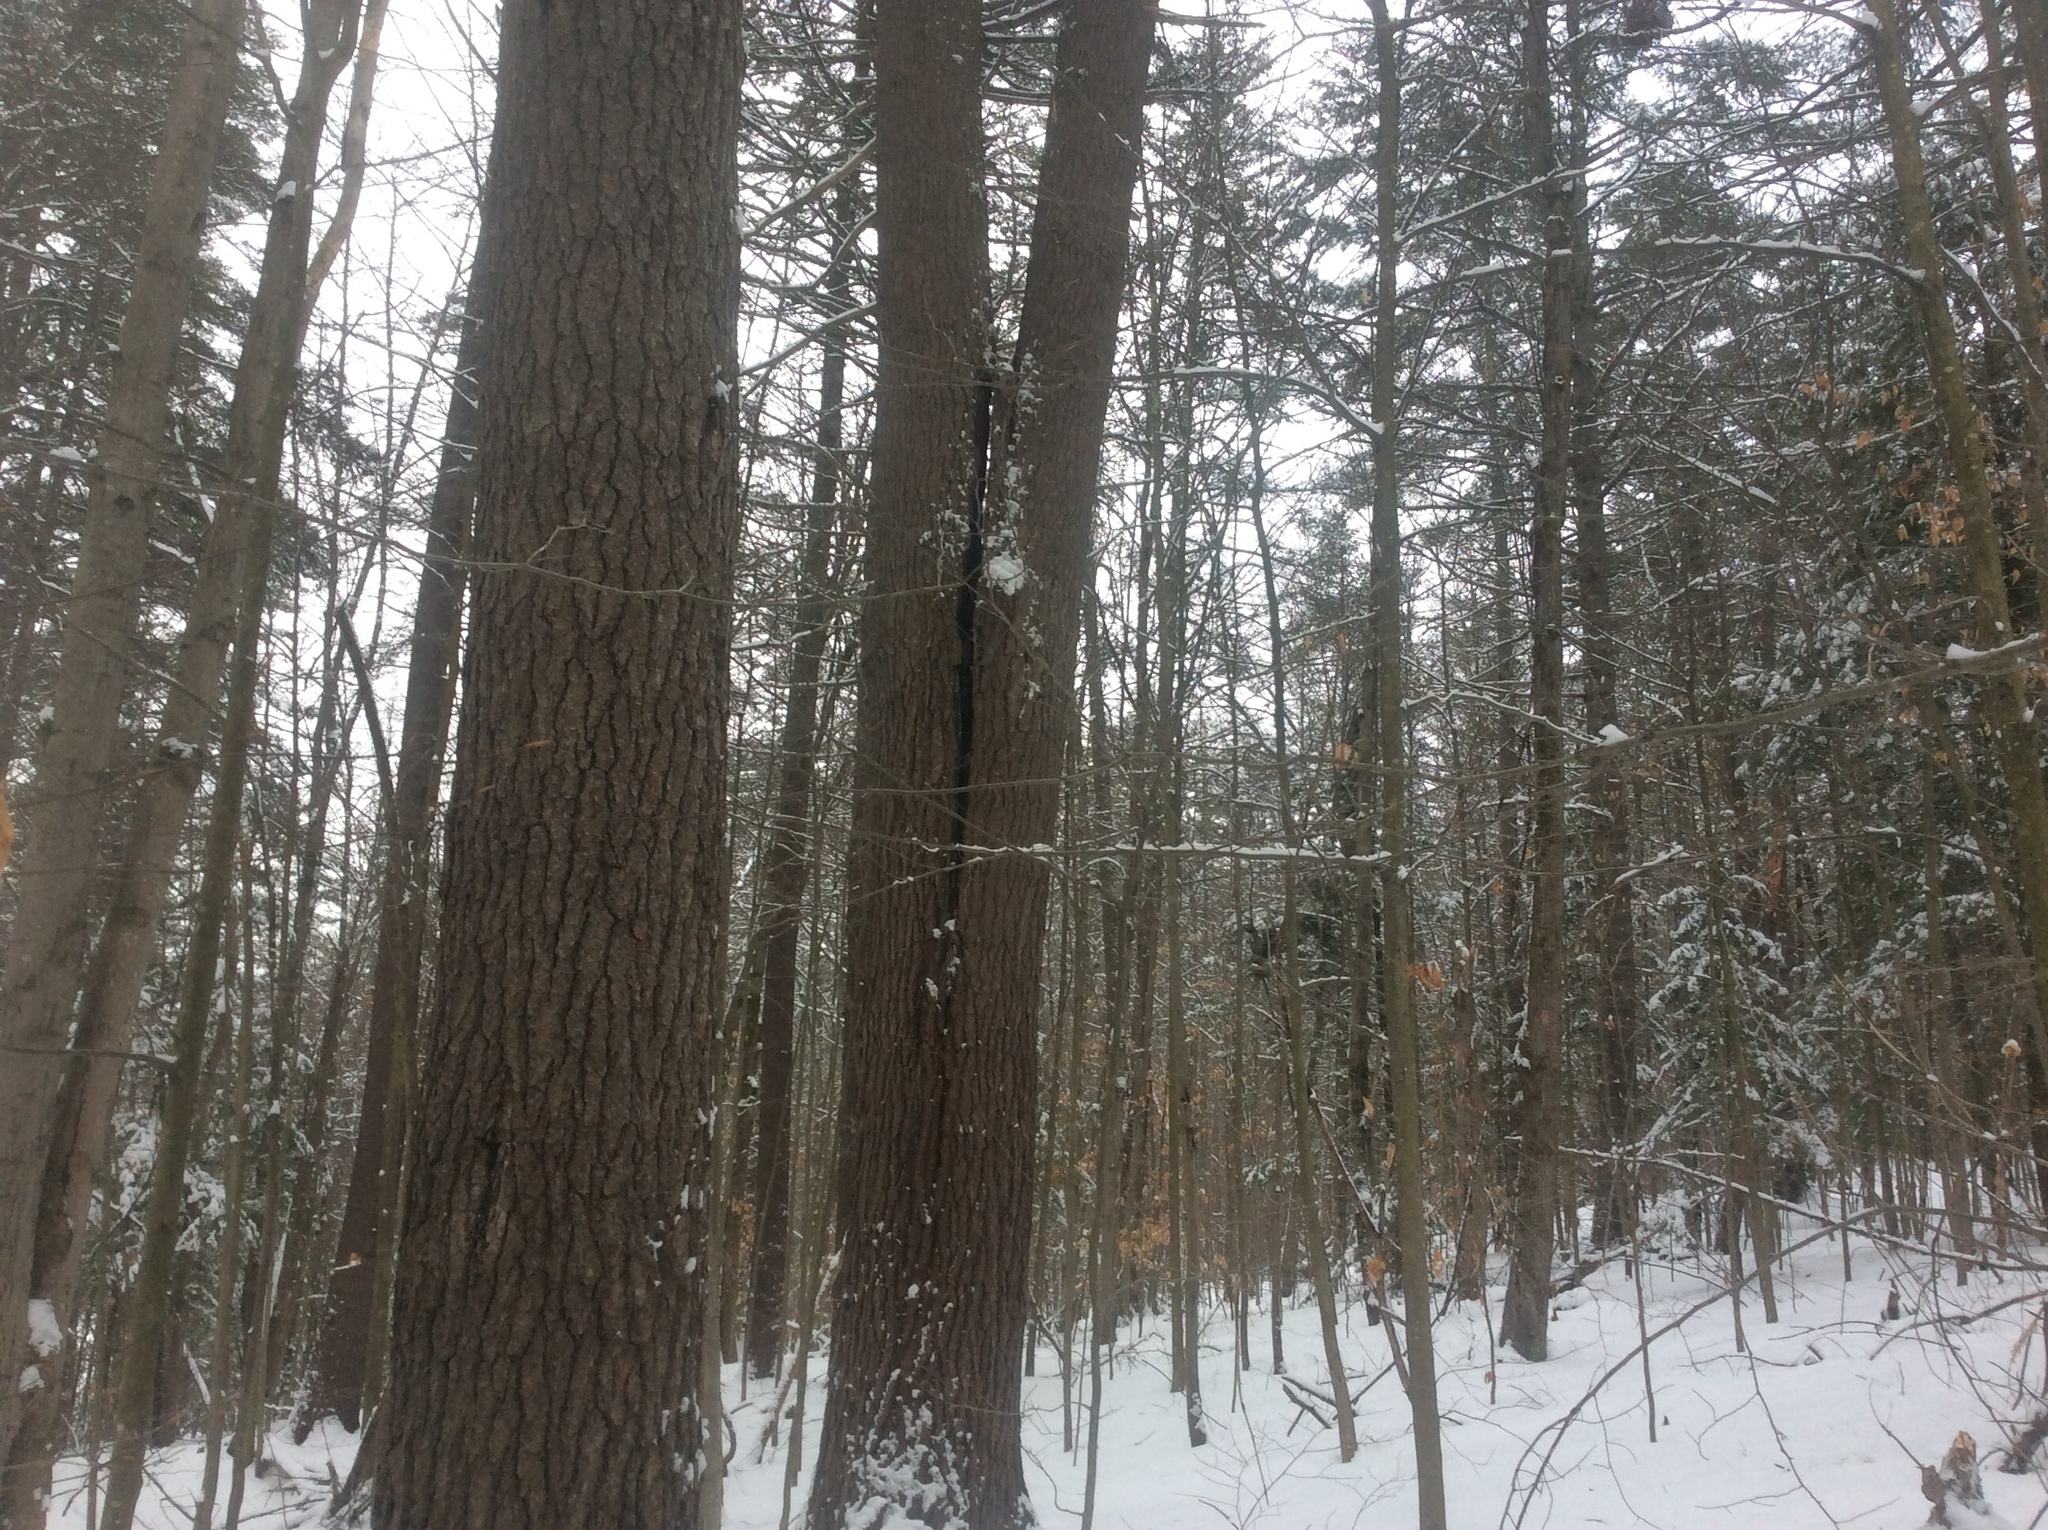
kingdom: Plantae
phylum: Tracheophyta
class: Pinopsida
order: Pinales
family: Pinaceae
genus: Pinus
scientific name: Pinus strobus
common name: Weymouth pine
